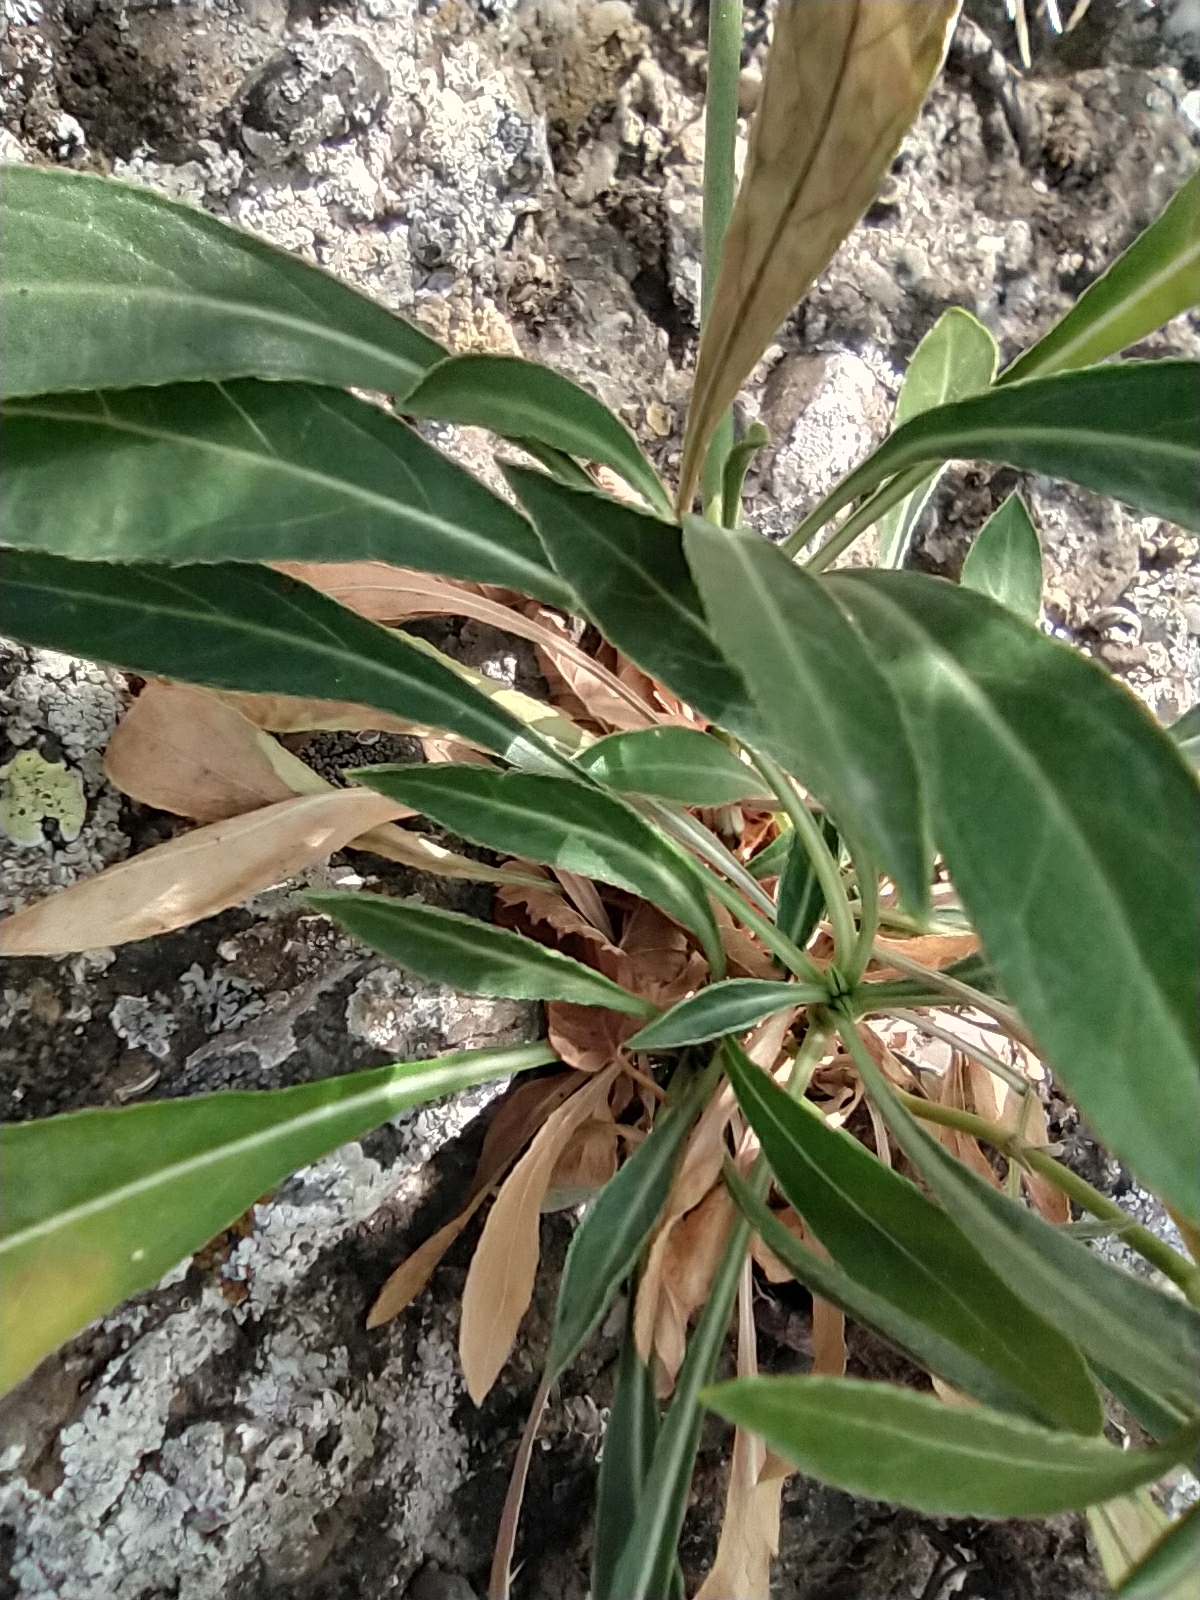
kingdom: Plantae
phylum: Tracheophyta
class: Magnoliopsida
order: Dipsacales
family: Caprifoliaceae
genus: Cephalaria
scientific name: Cephalaria coriacea
